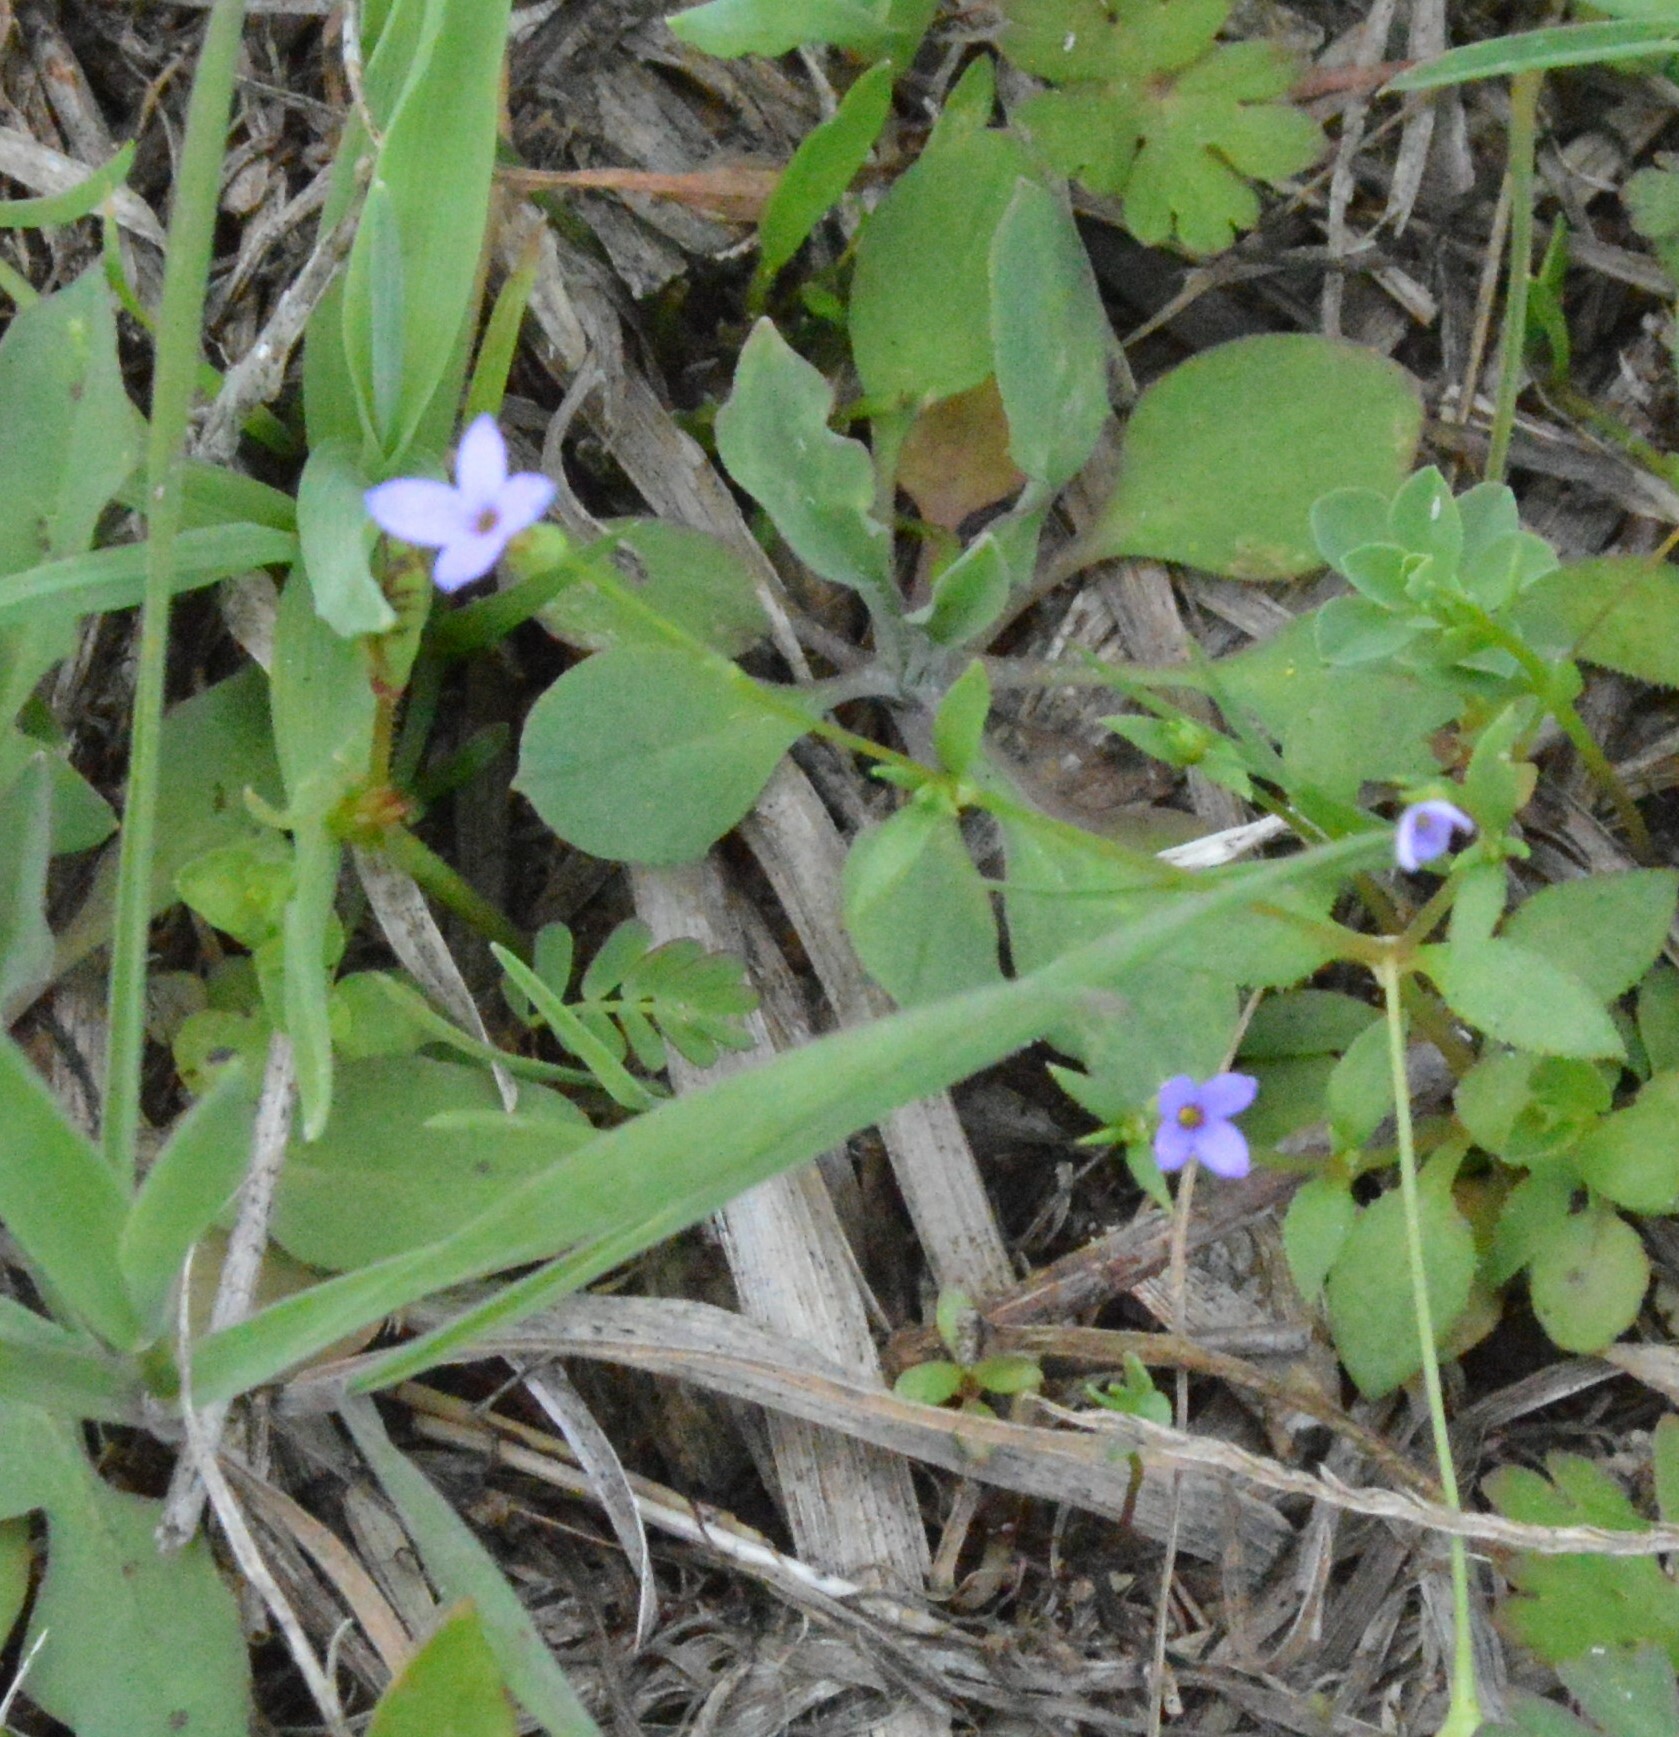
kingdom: Plantae
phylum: Tracheophyta
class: Magnoliopsida
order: Gentianales
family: Rubiaceae
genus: Houstonia
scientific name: Houstonia pusilla
